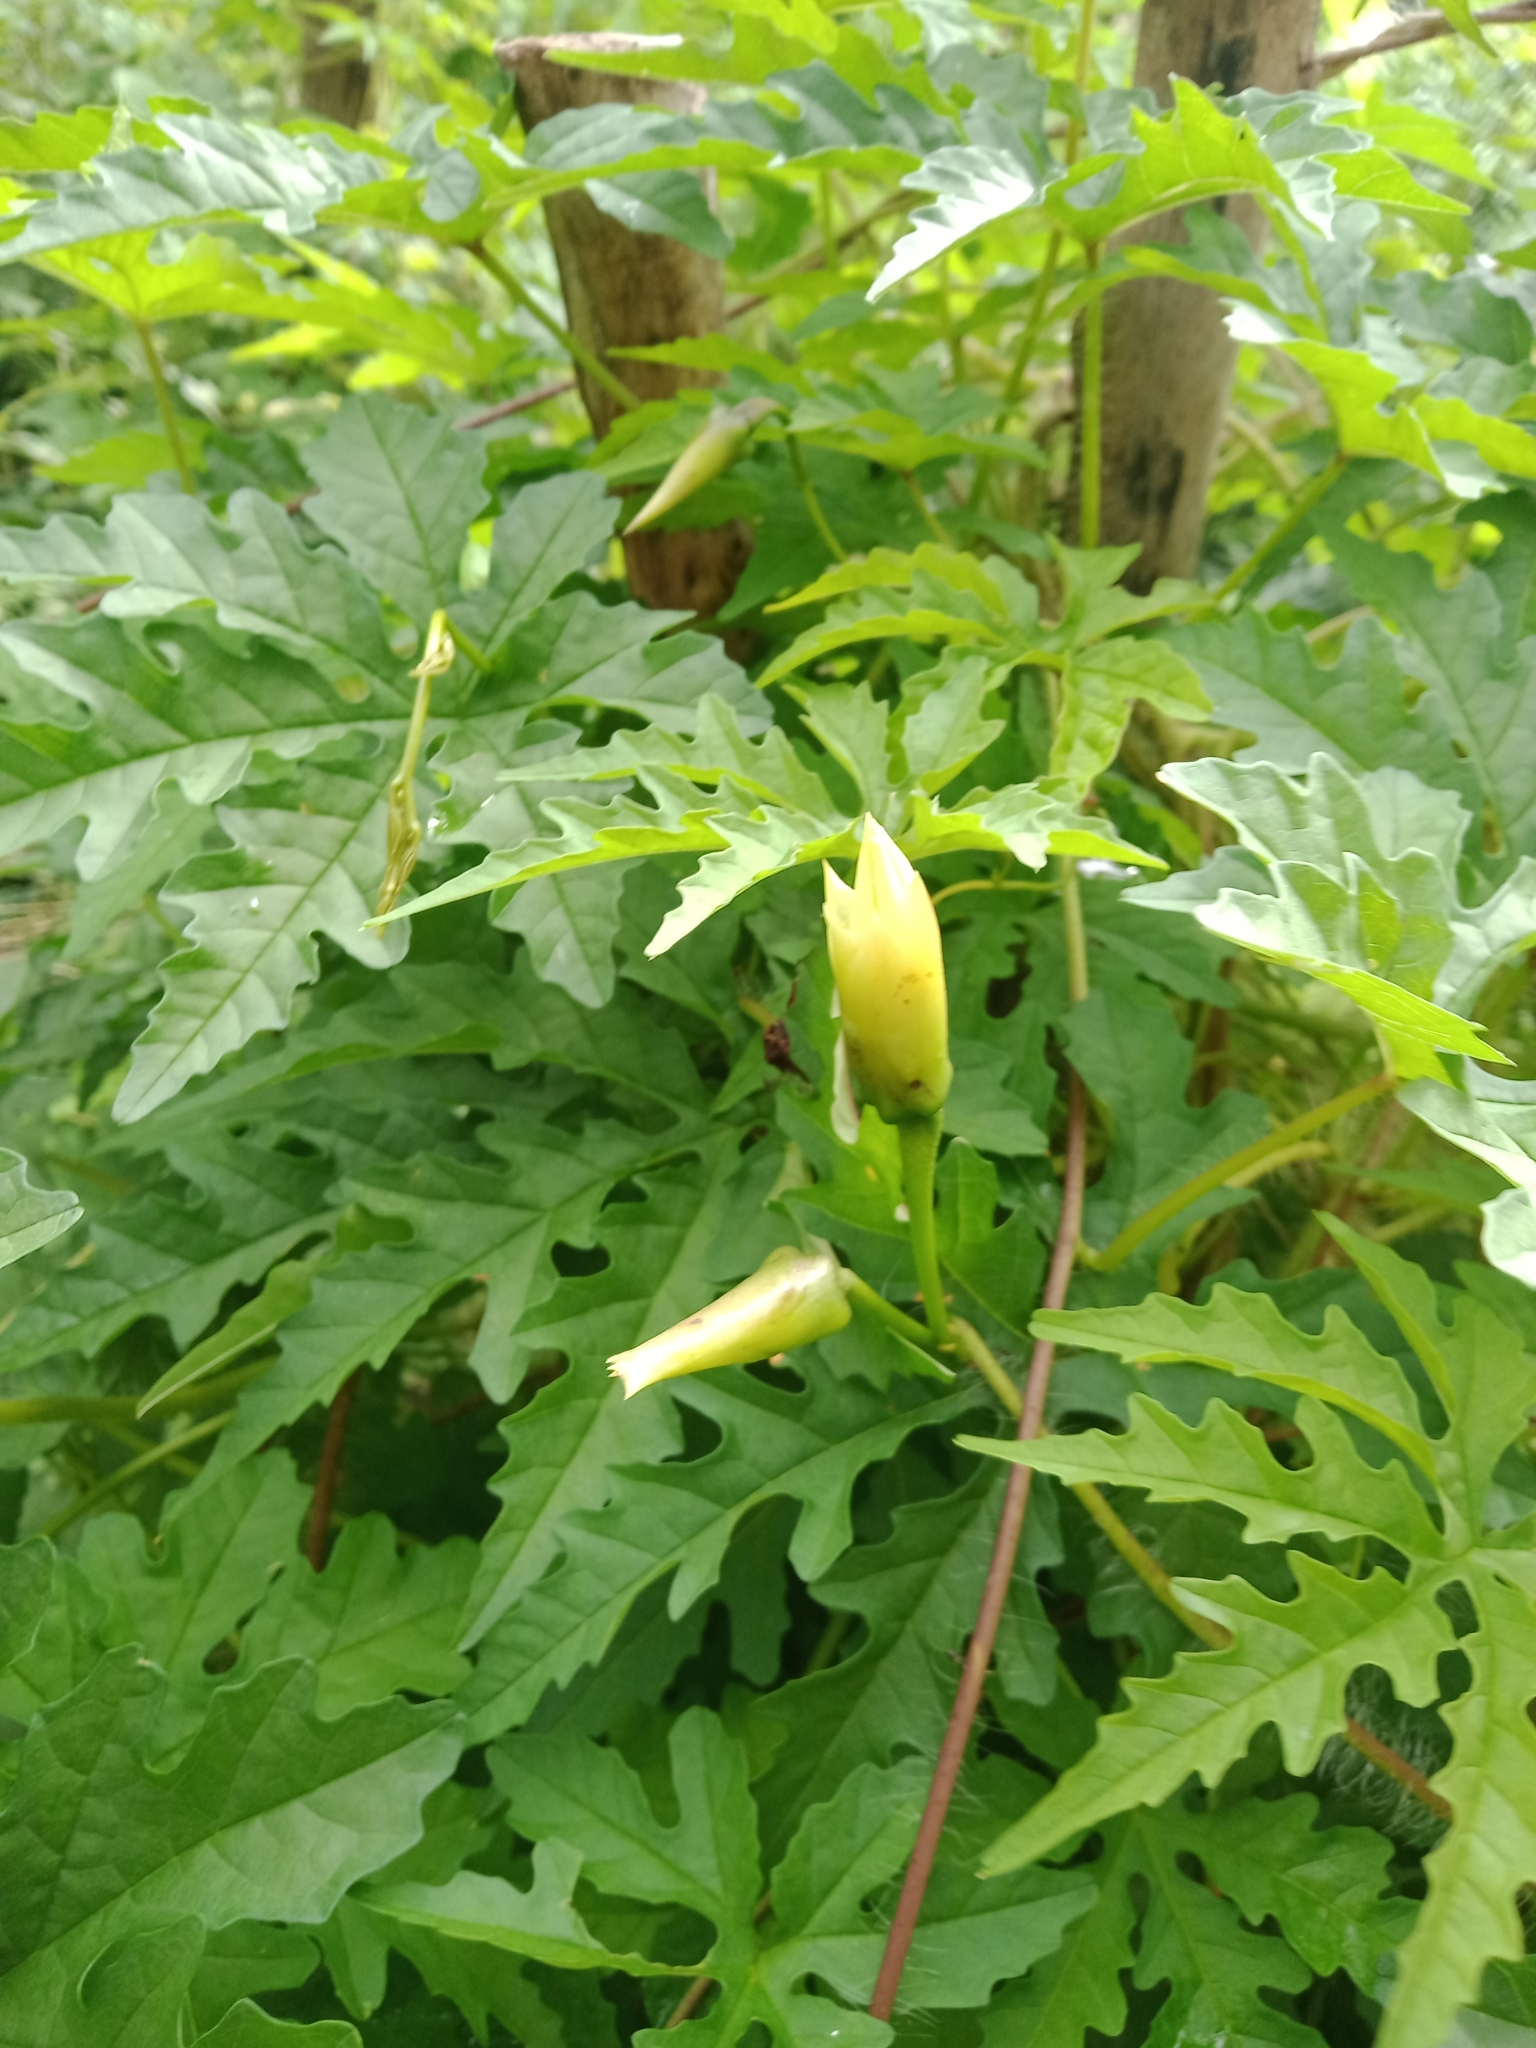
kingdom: Plantae
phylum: Tracheophyta
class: Magnoliopsida
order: Solanales
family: Convolvulaceae
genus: Distimake
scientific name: Distimake dissectus
